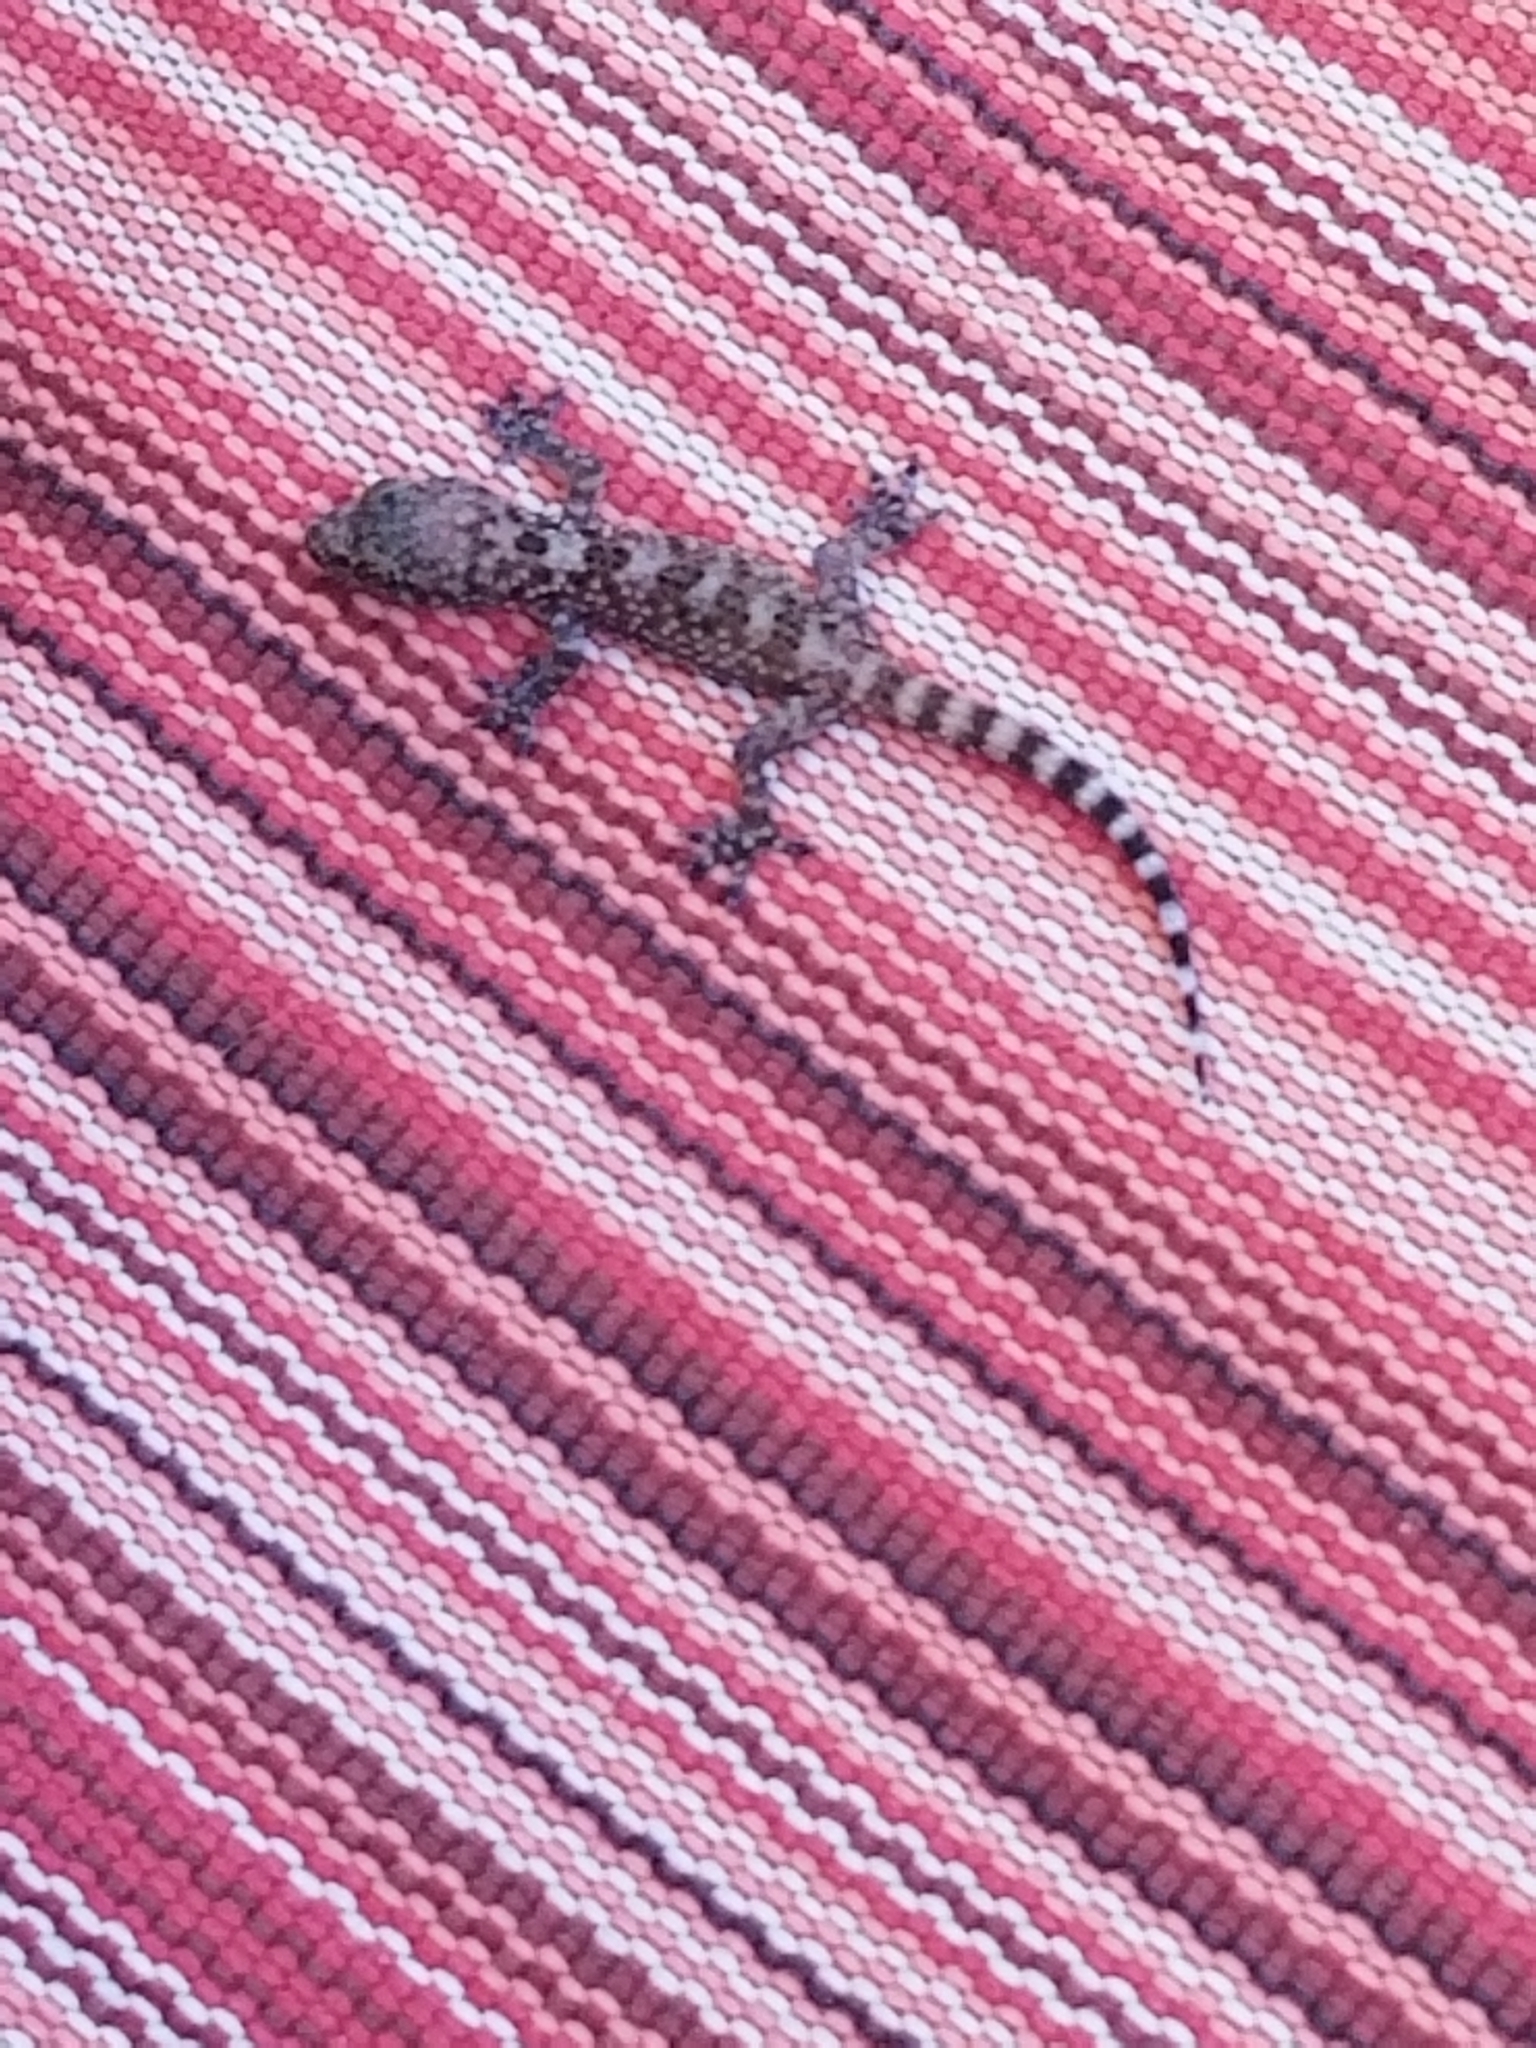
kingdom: Animalia
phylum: Chordata
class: Squamata
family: Gekkonidae
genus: Hemidactylus
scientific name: Hemidactylus turcicus
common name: Turkish gecko
